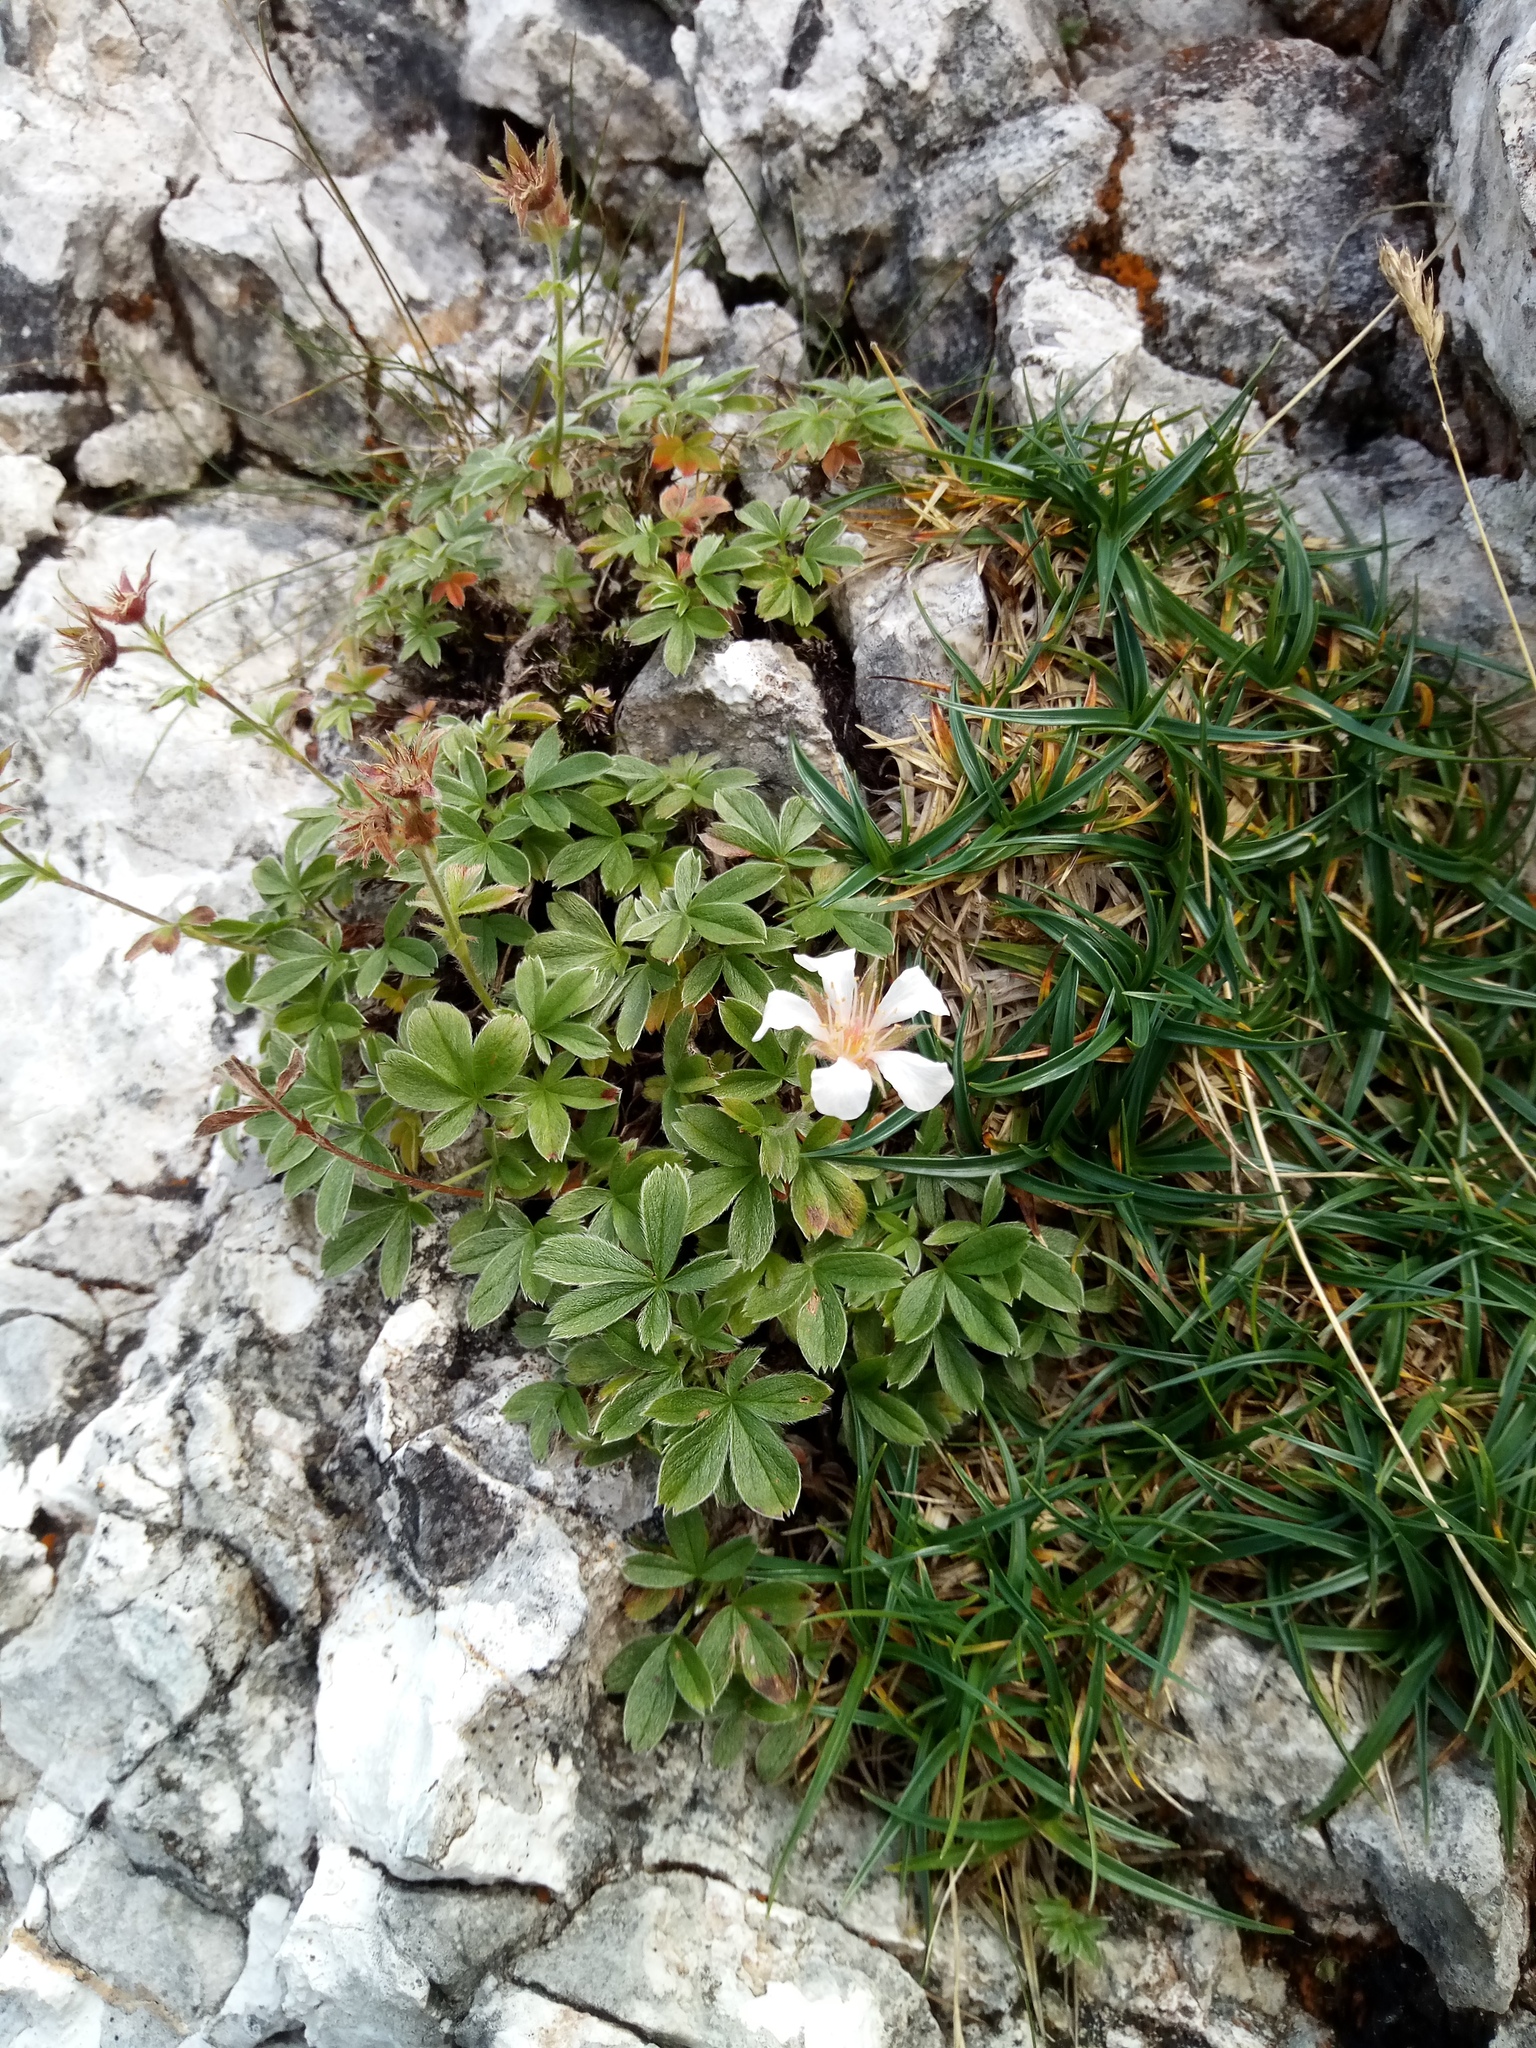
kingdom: Plantae
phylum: Tracheophyta
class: Magnoliopsida
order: Rosales
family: Rosaceae
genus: Potentilla
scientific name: Potentilla clusiana
